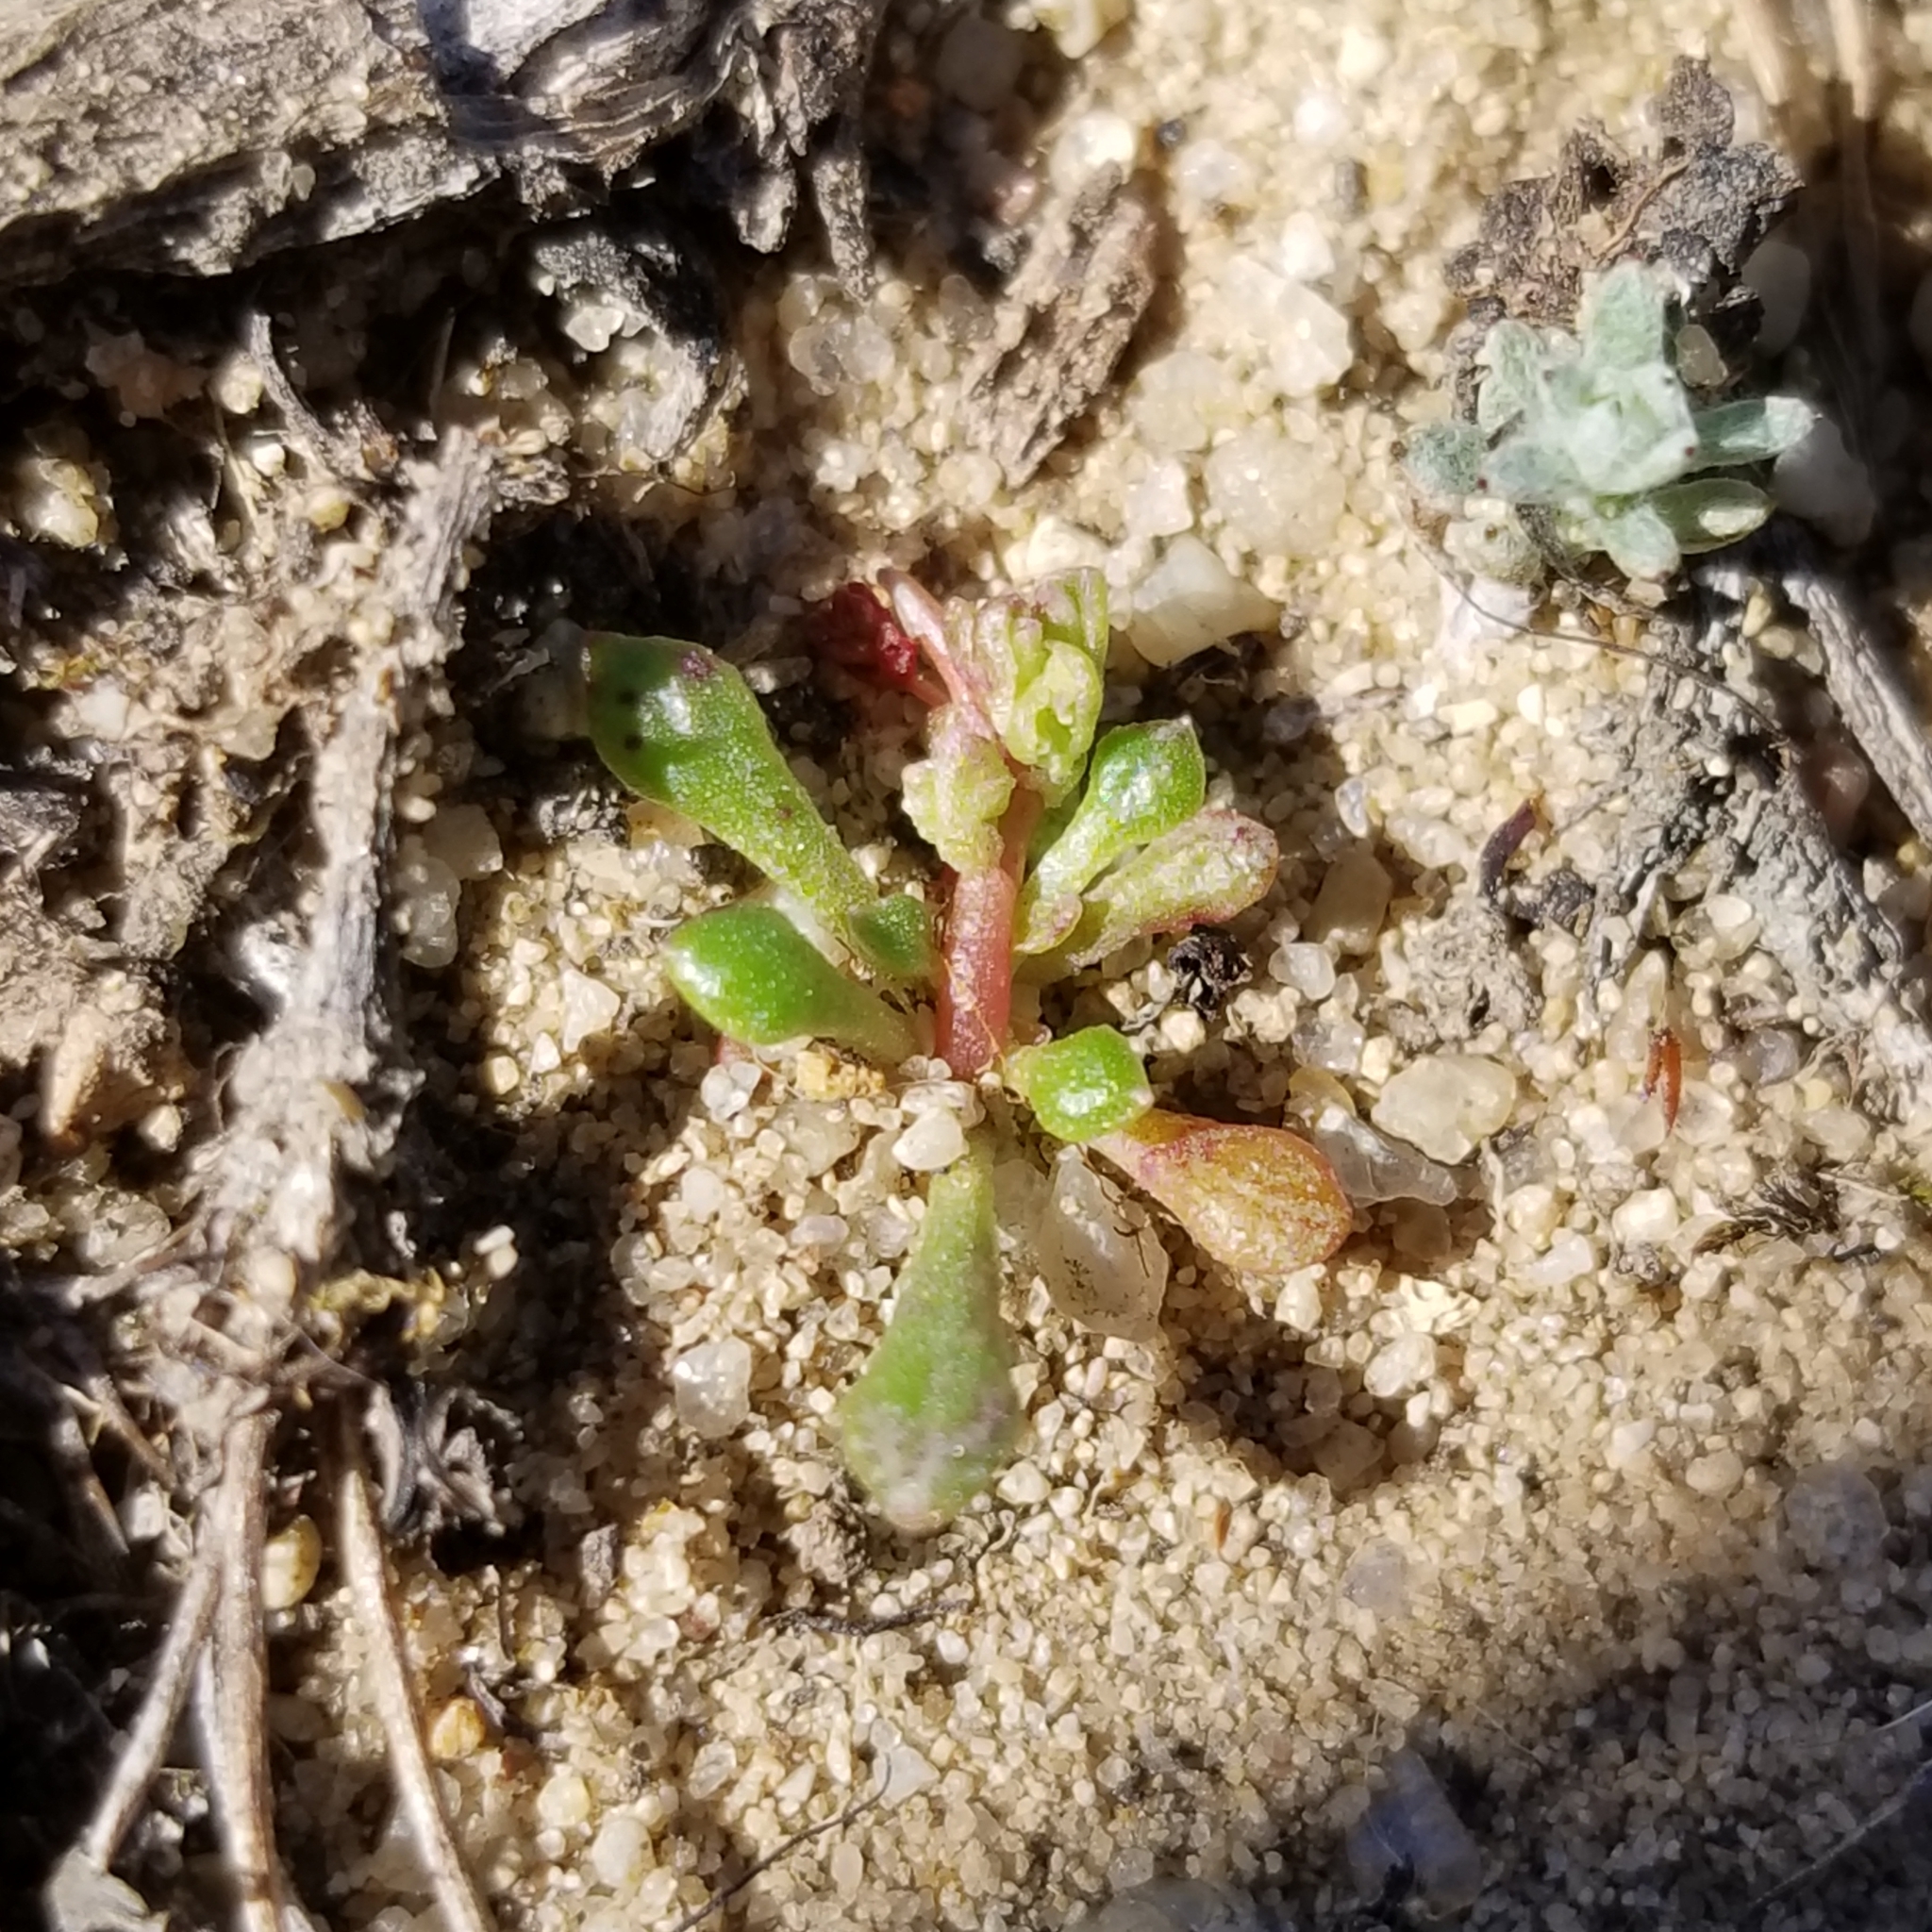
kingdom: Plantae
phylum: Tracheophyta
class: Magnoliopsida
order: Caryophyllales
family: Montiaceae
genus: Calyptridium
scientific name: Calyptridium monandrum
